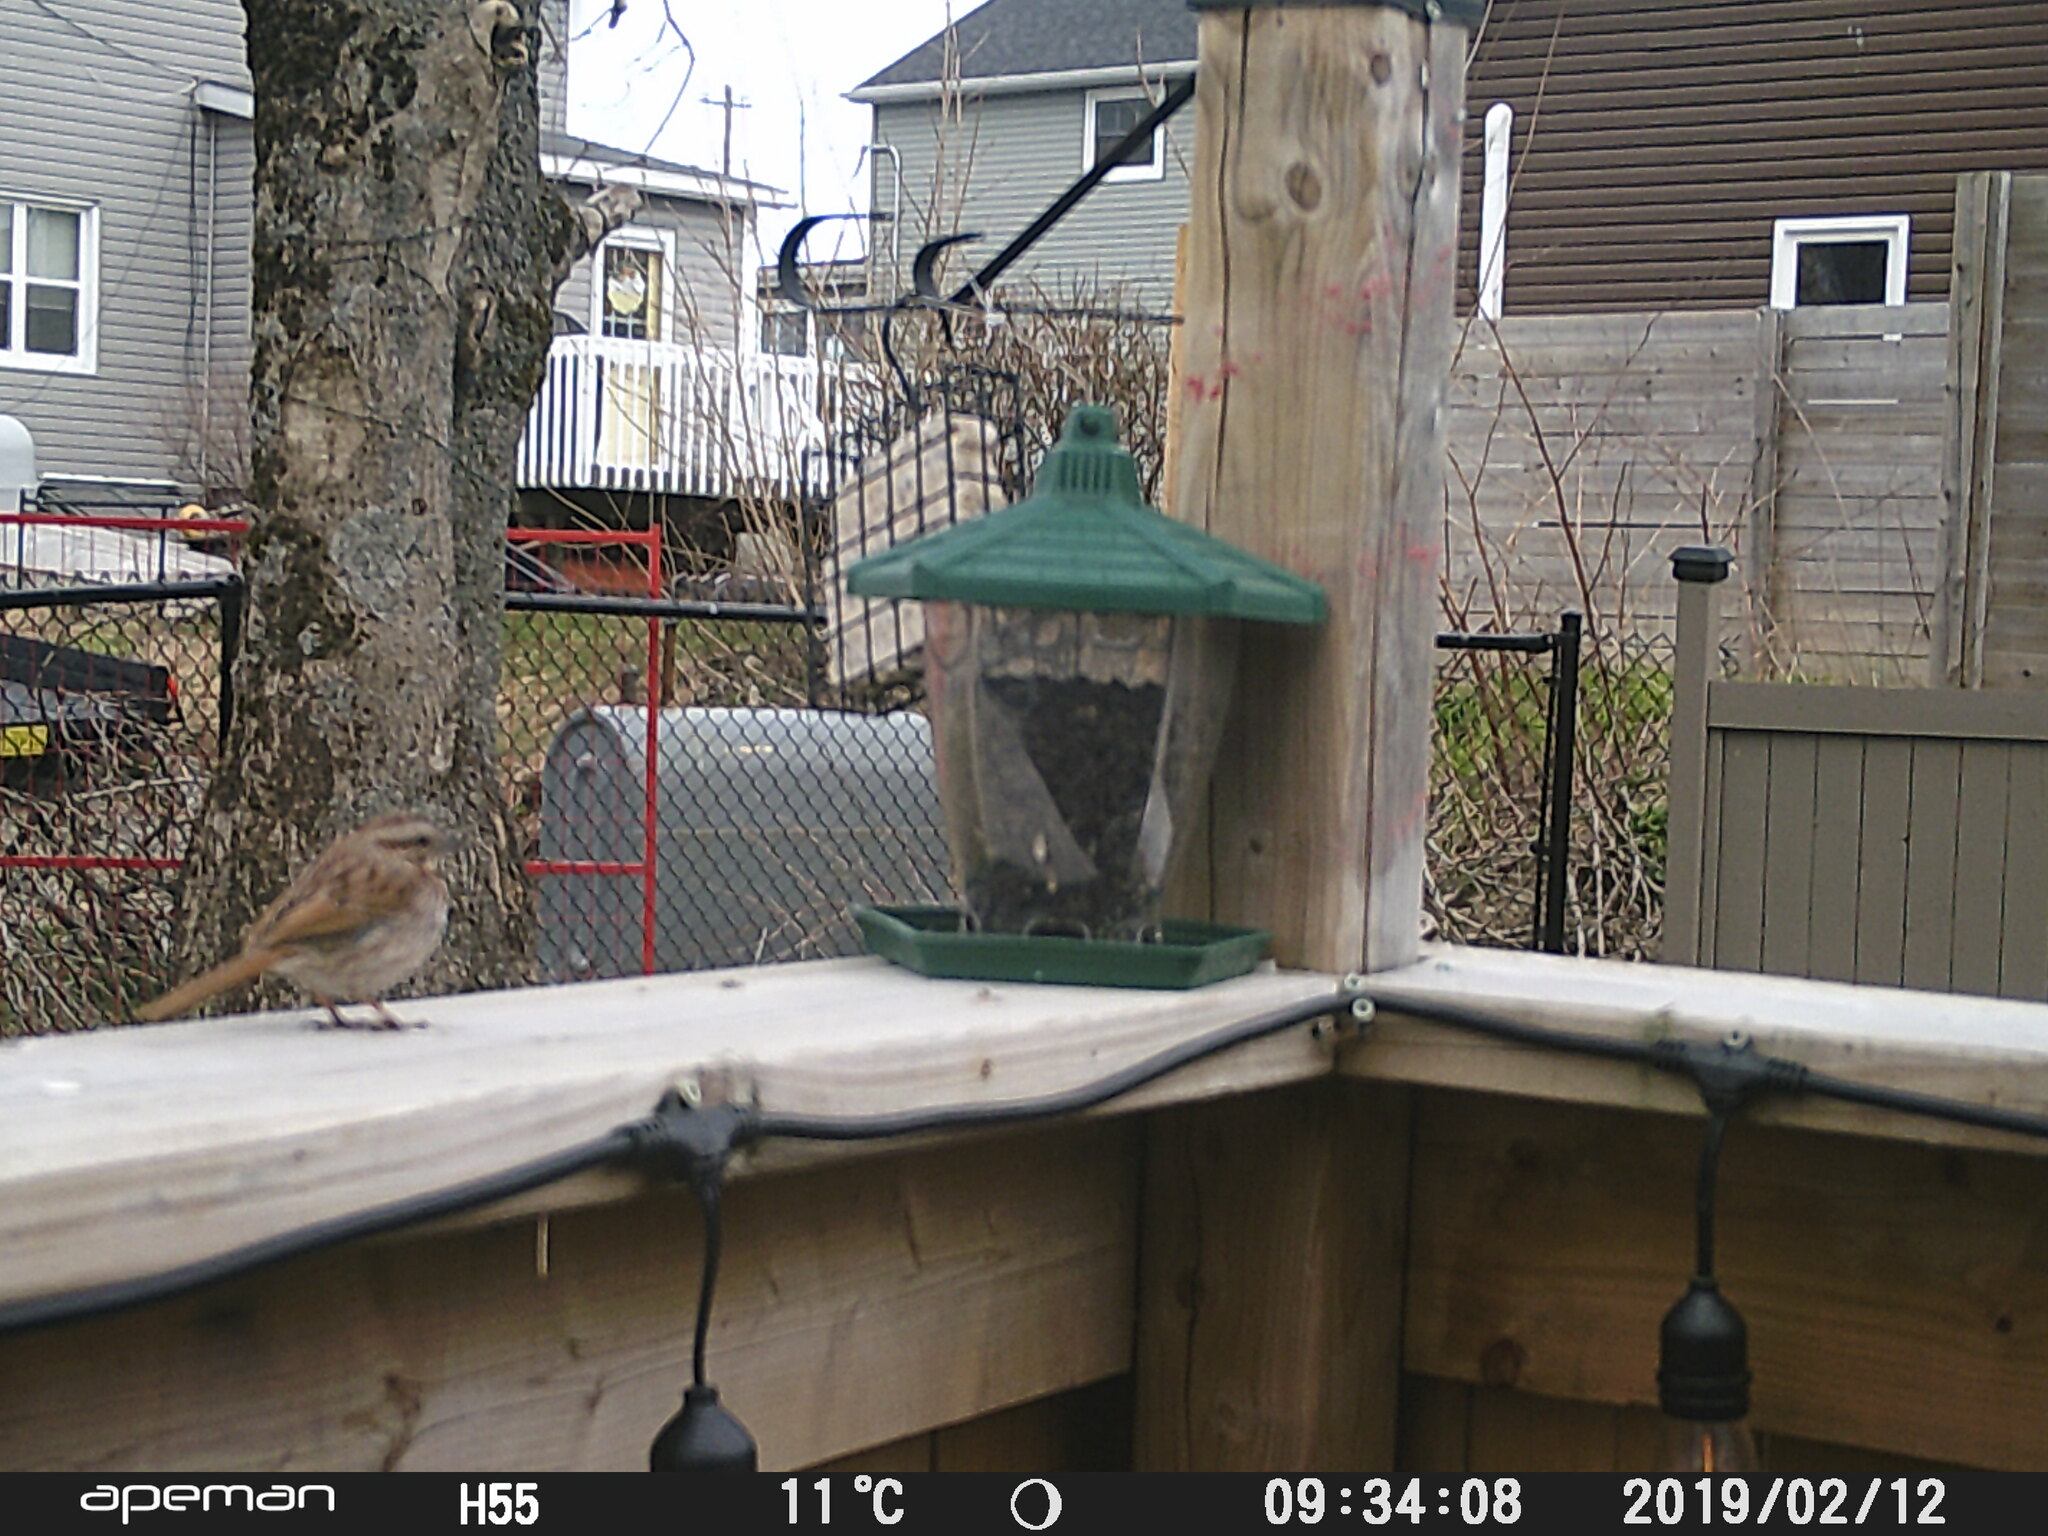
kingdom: Animalia
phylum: Chordata
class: Aves
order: Passeriformes
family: Passerellidae
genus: Melospiza
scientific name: Melospiza melodia
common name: Song sparrow
